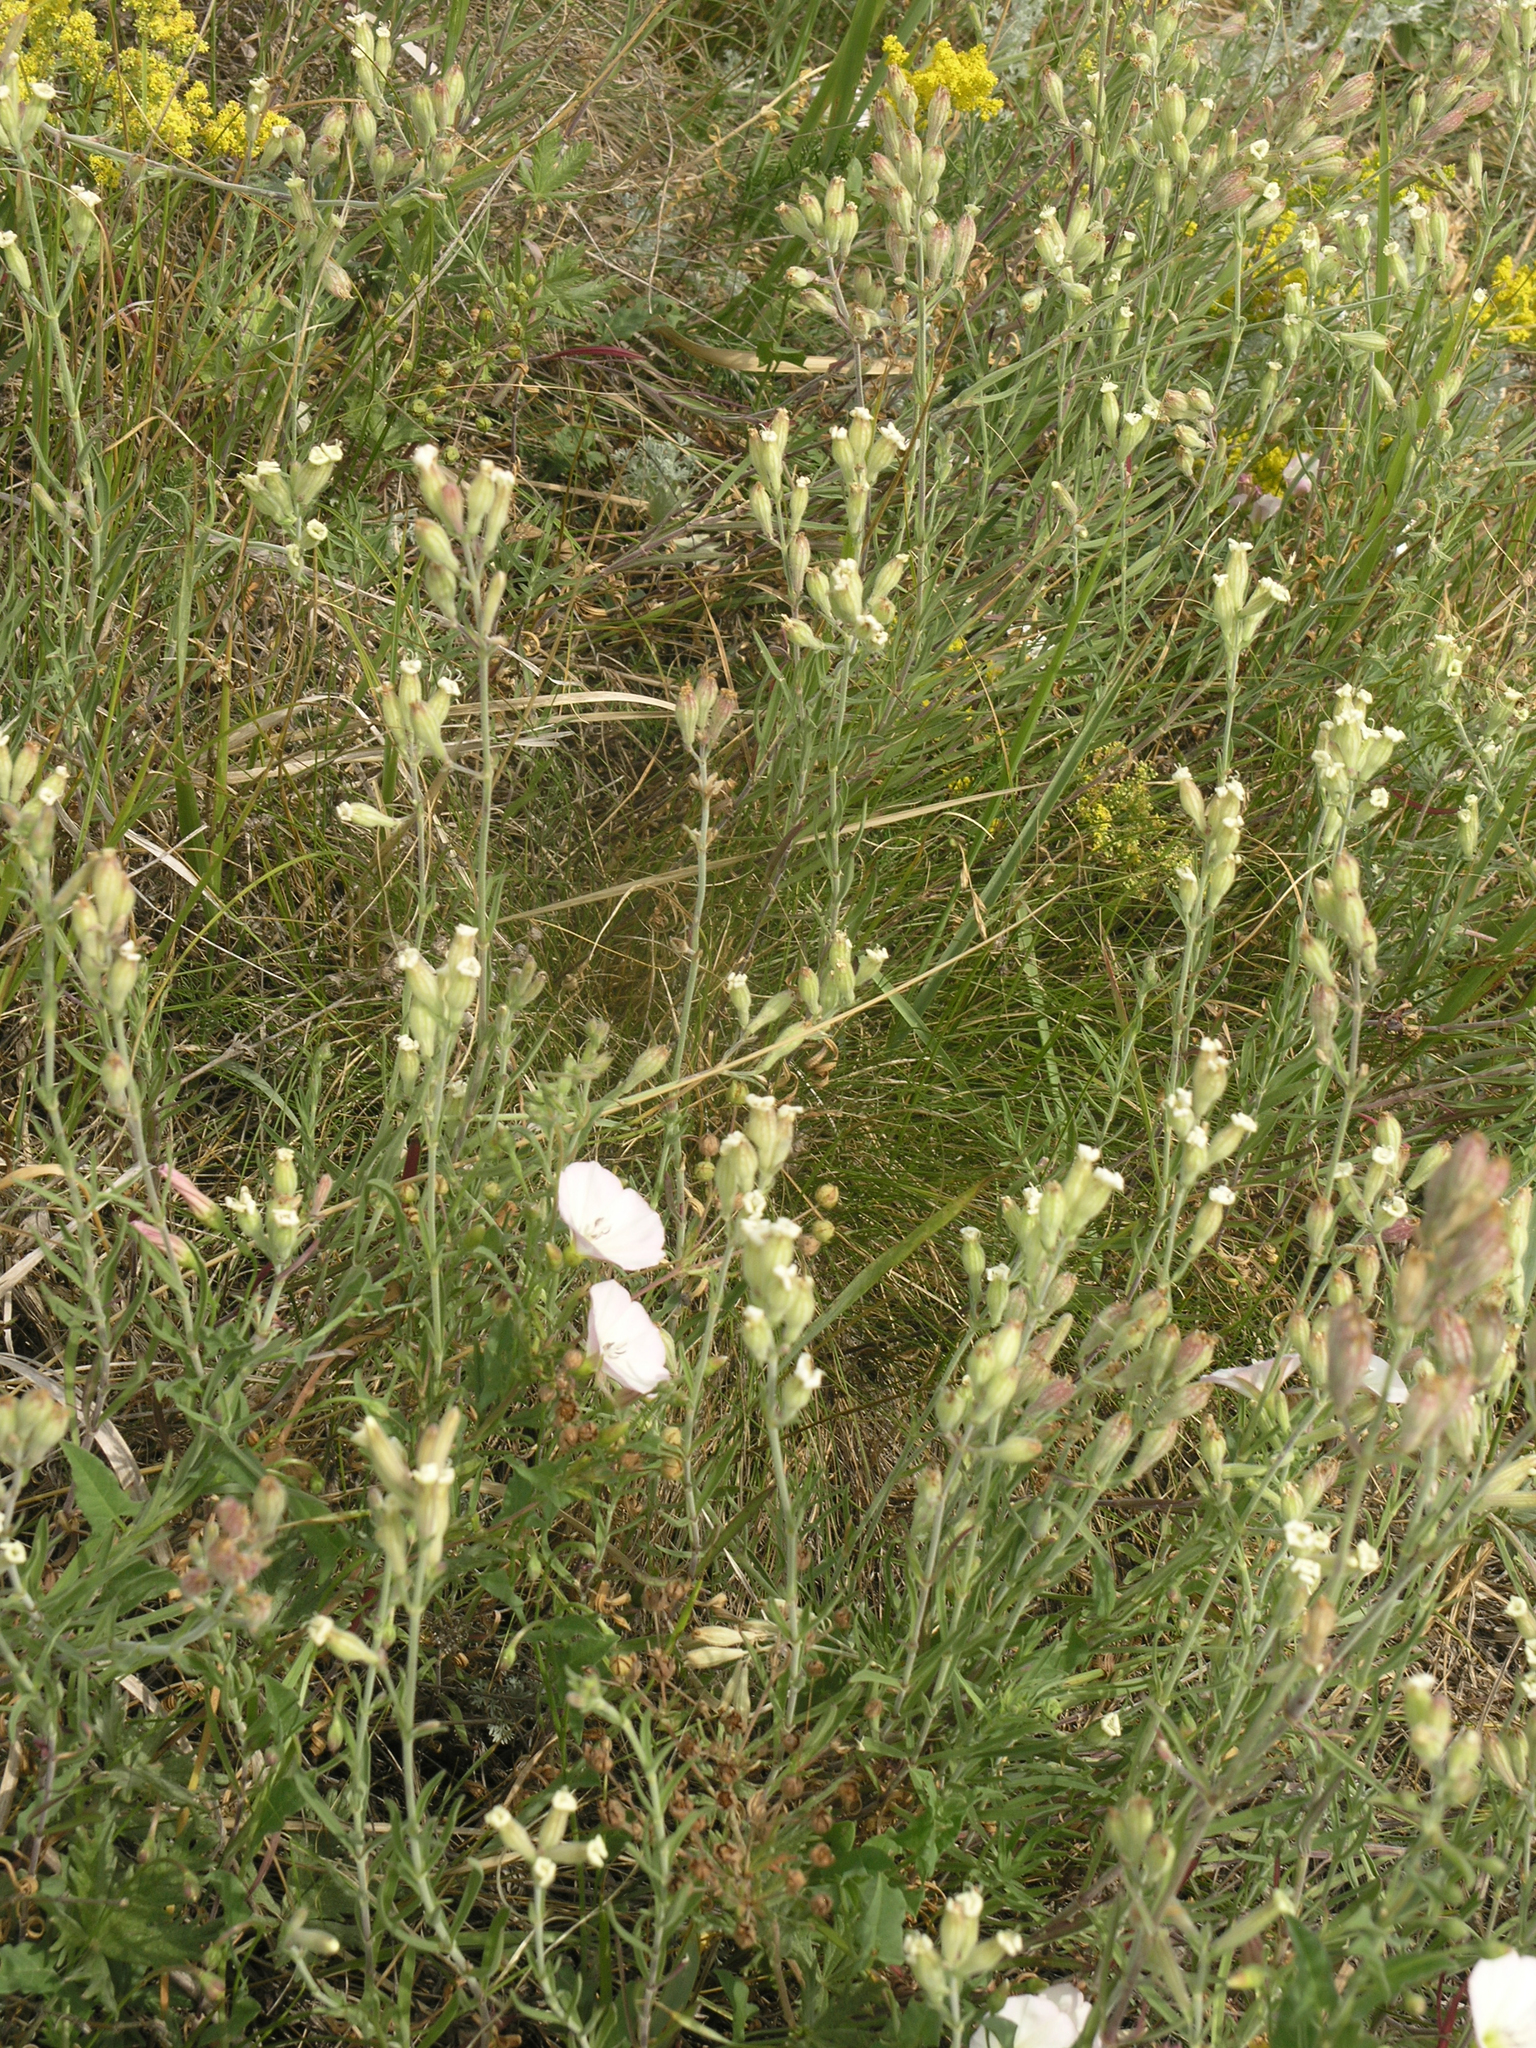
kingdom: Plantae
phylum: Tracheophyta
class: Magnoliopsida
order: Caryophyllales
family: Caryophyllaceae
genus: Silene
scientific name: Silene repens
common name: Pink campion
